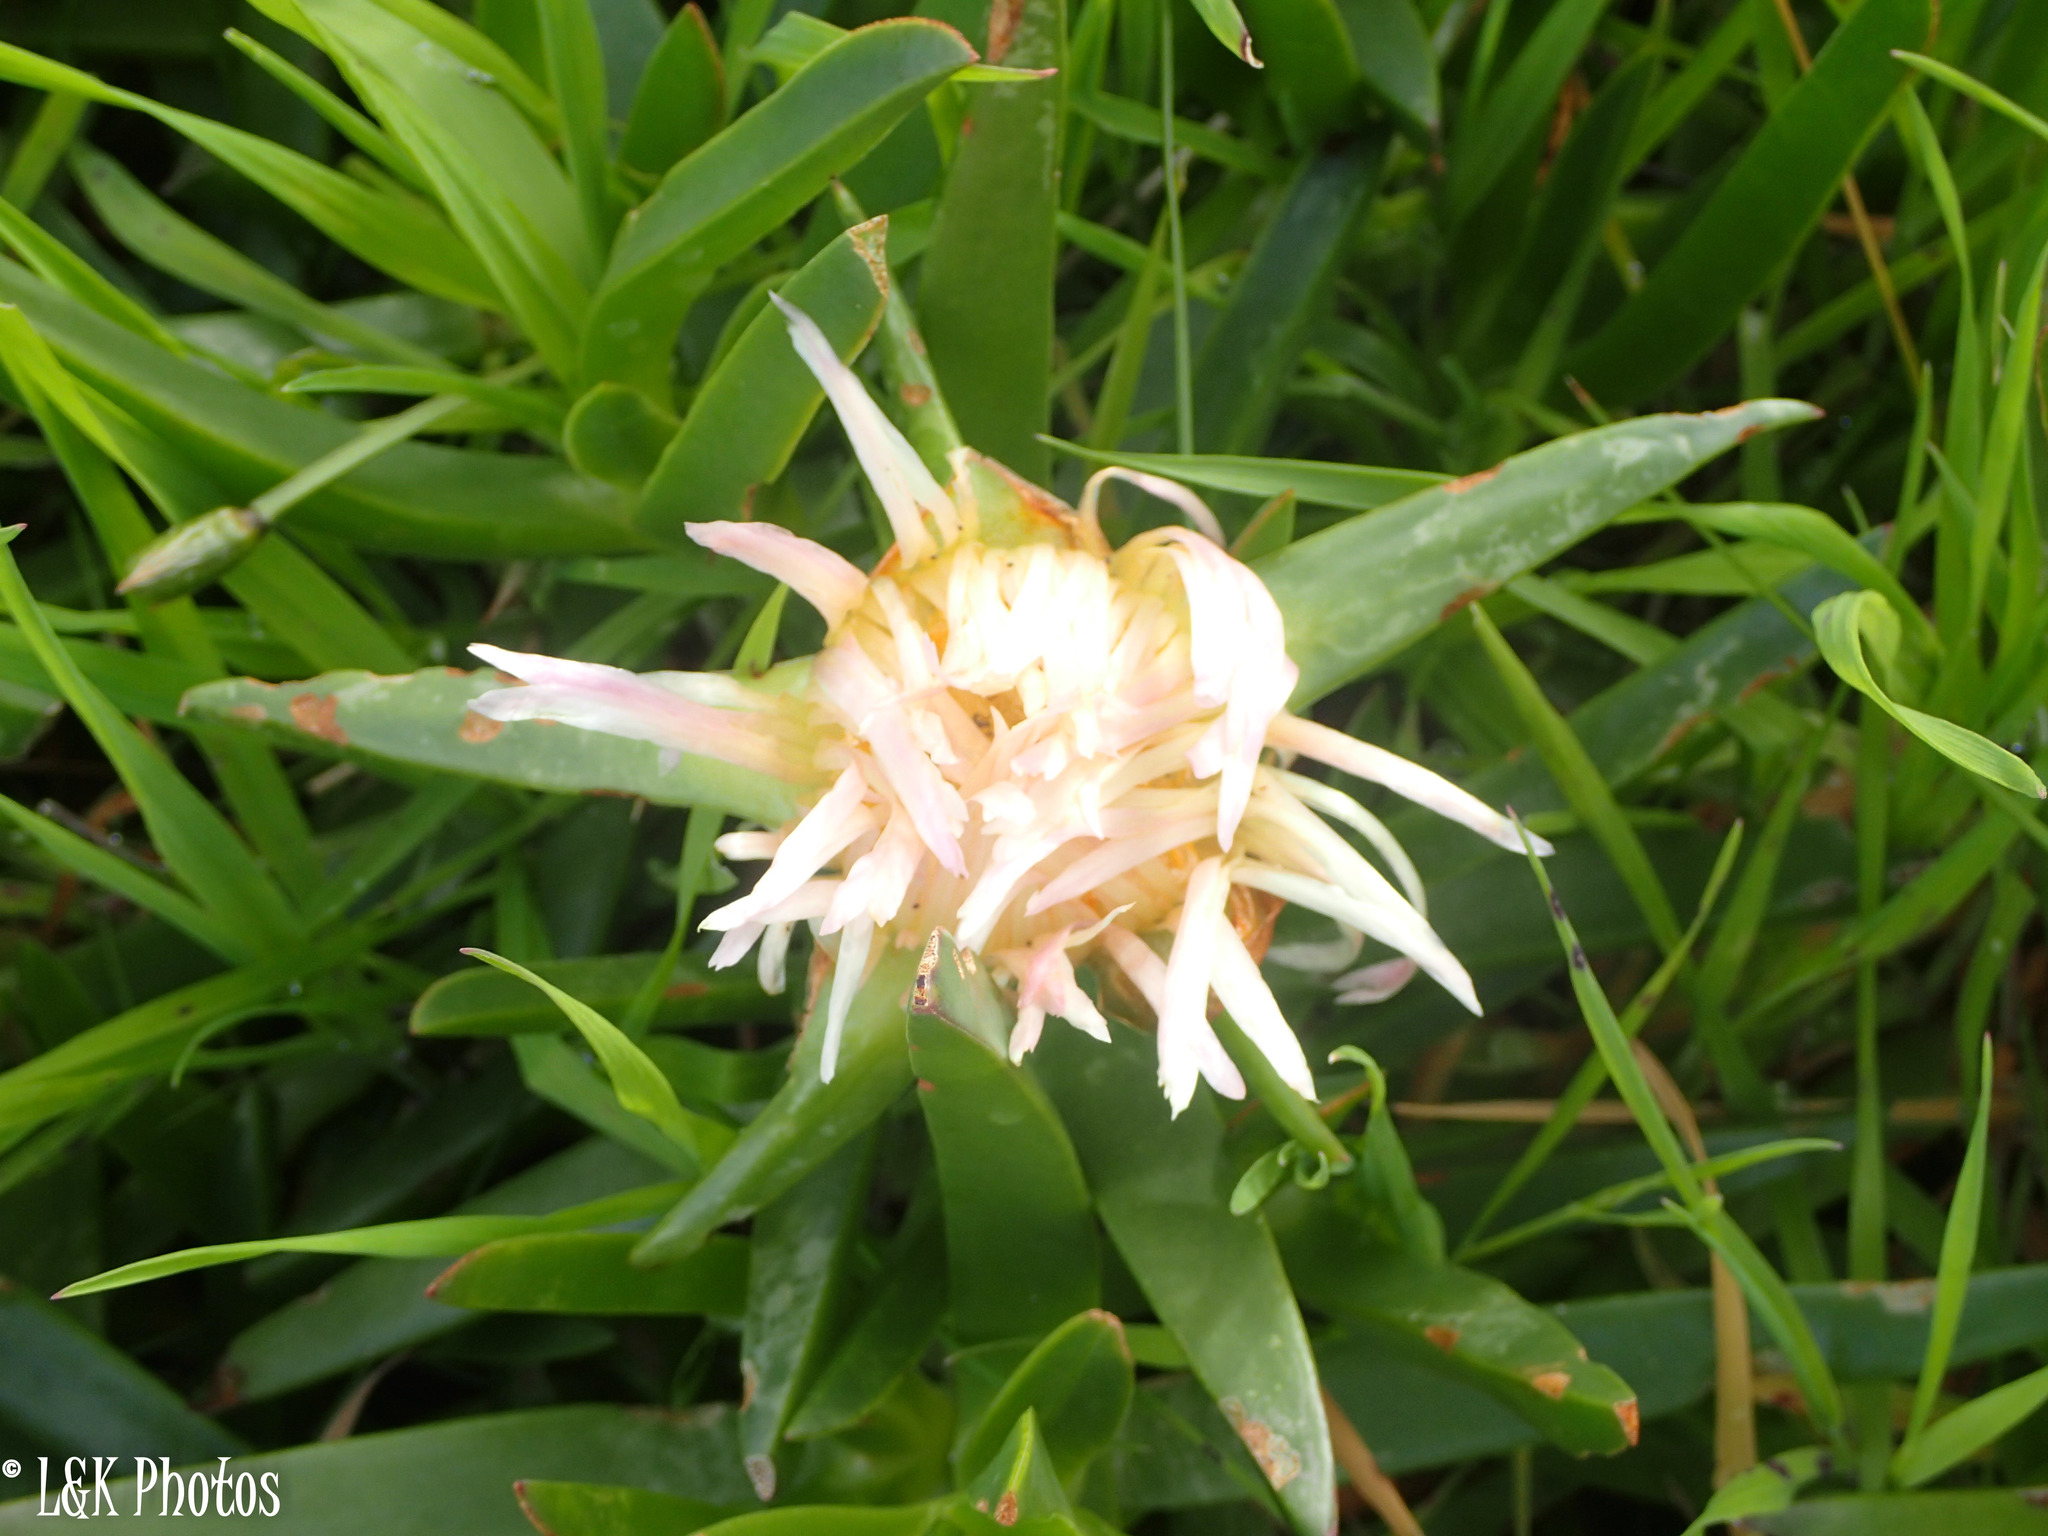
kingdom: Plantae
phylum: Tracheophyta
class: Magnoliopsida
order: Caryophyllales
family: Aizoaceae
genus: Carpobrotus
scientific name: Carpobrotus edulis
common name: Hottentot-fig
